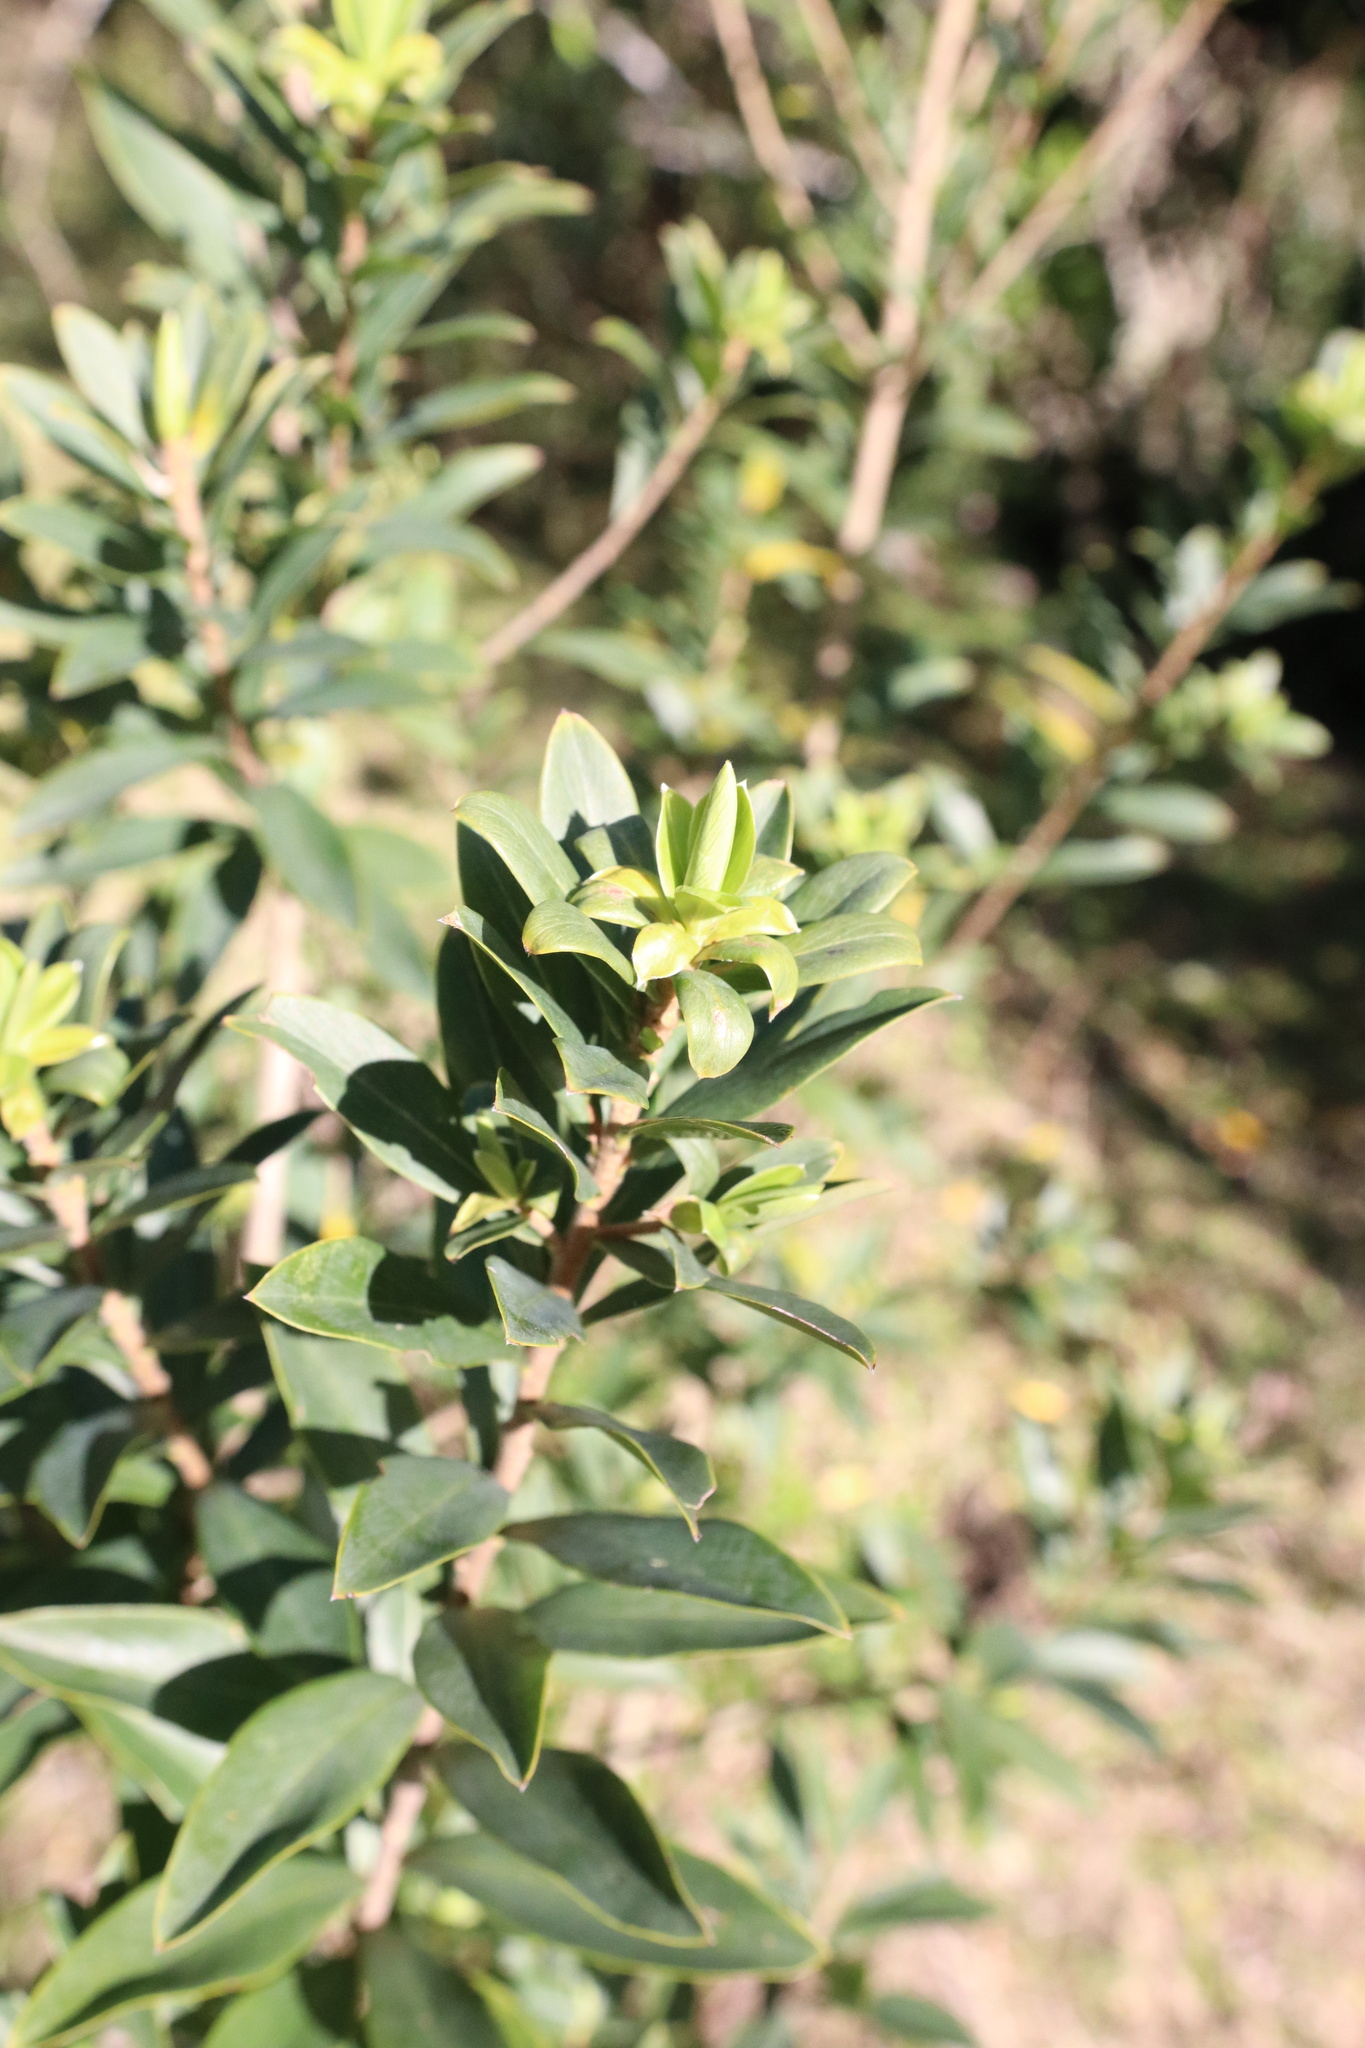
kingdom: Plantae
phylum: Tracheophyta
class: Magnoliopsida
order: Malvales
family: Thymelaeaceae
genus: Ovidia
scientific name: Ovidia andina
